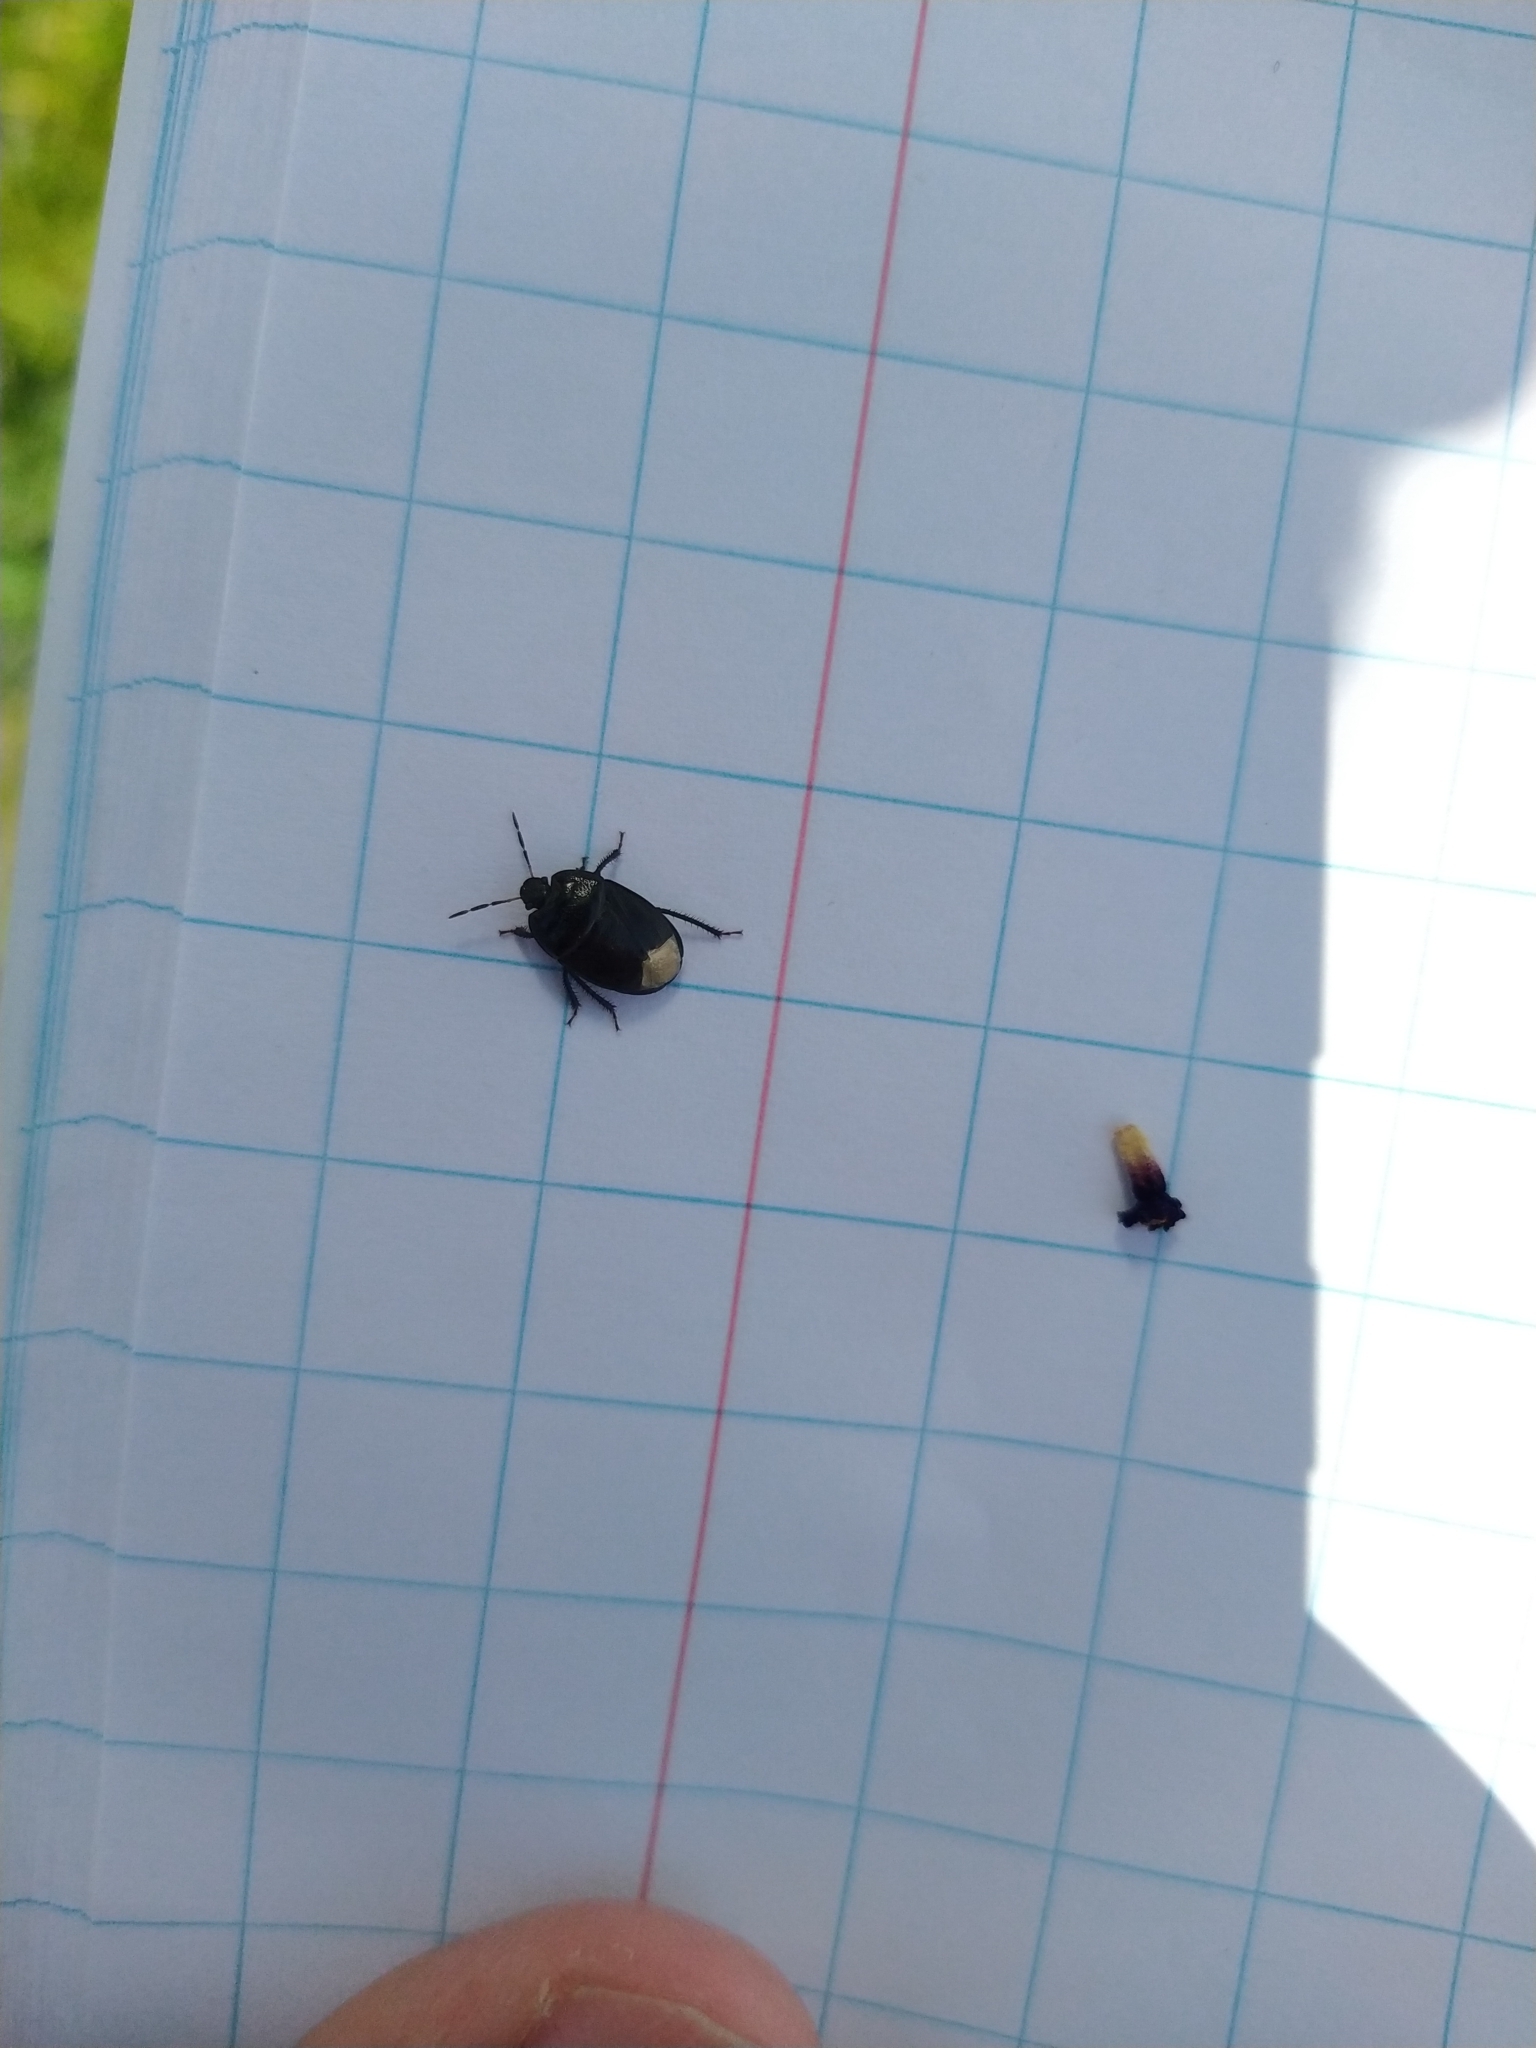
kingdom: Animalia
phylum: Arthropoda
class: Insecta
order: Hemiptera
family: Cydnidae
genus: Sehirus
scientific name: Sehirus luctuosus
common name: Forget-me-not shieldbug
